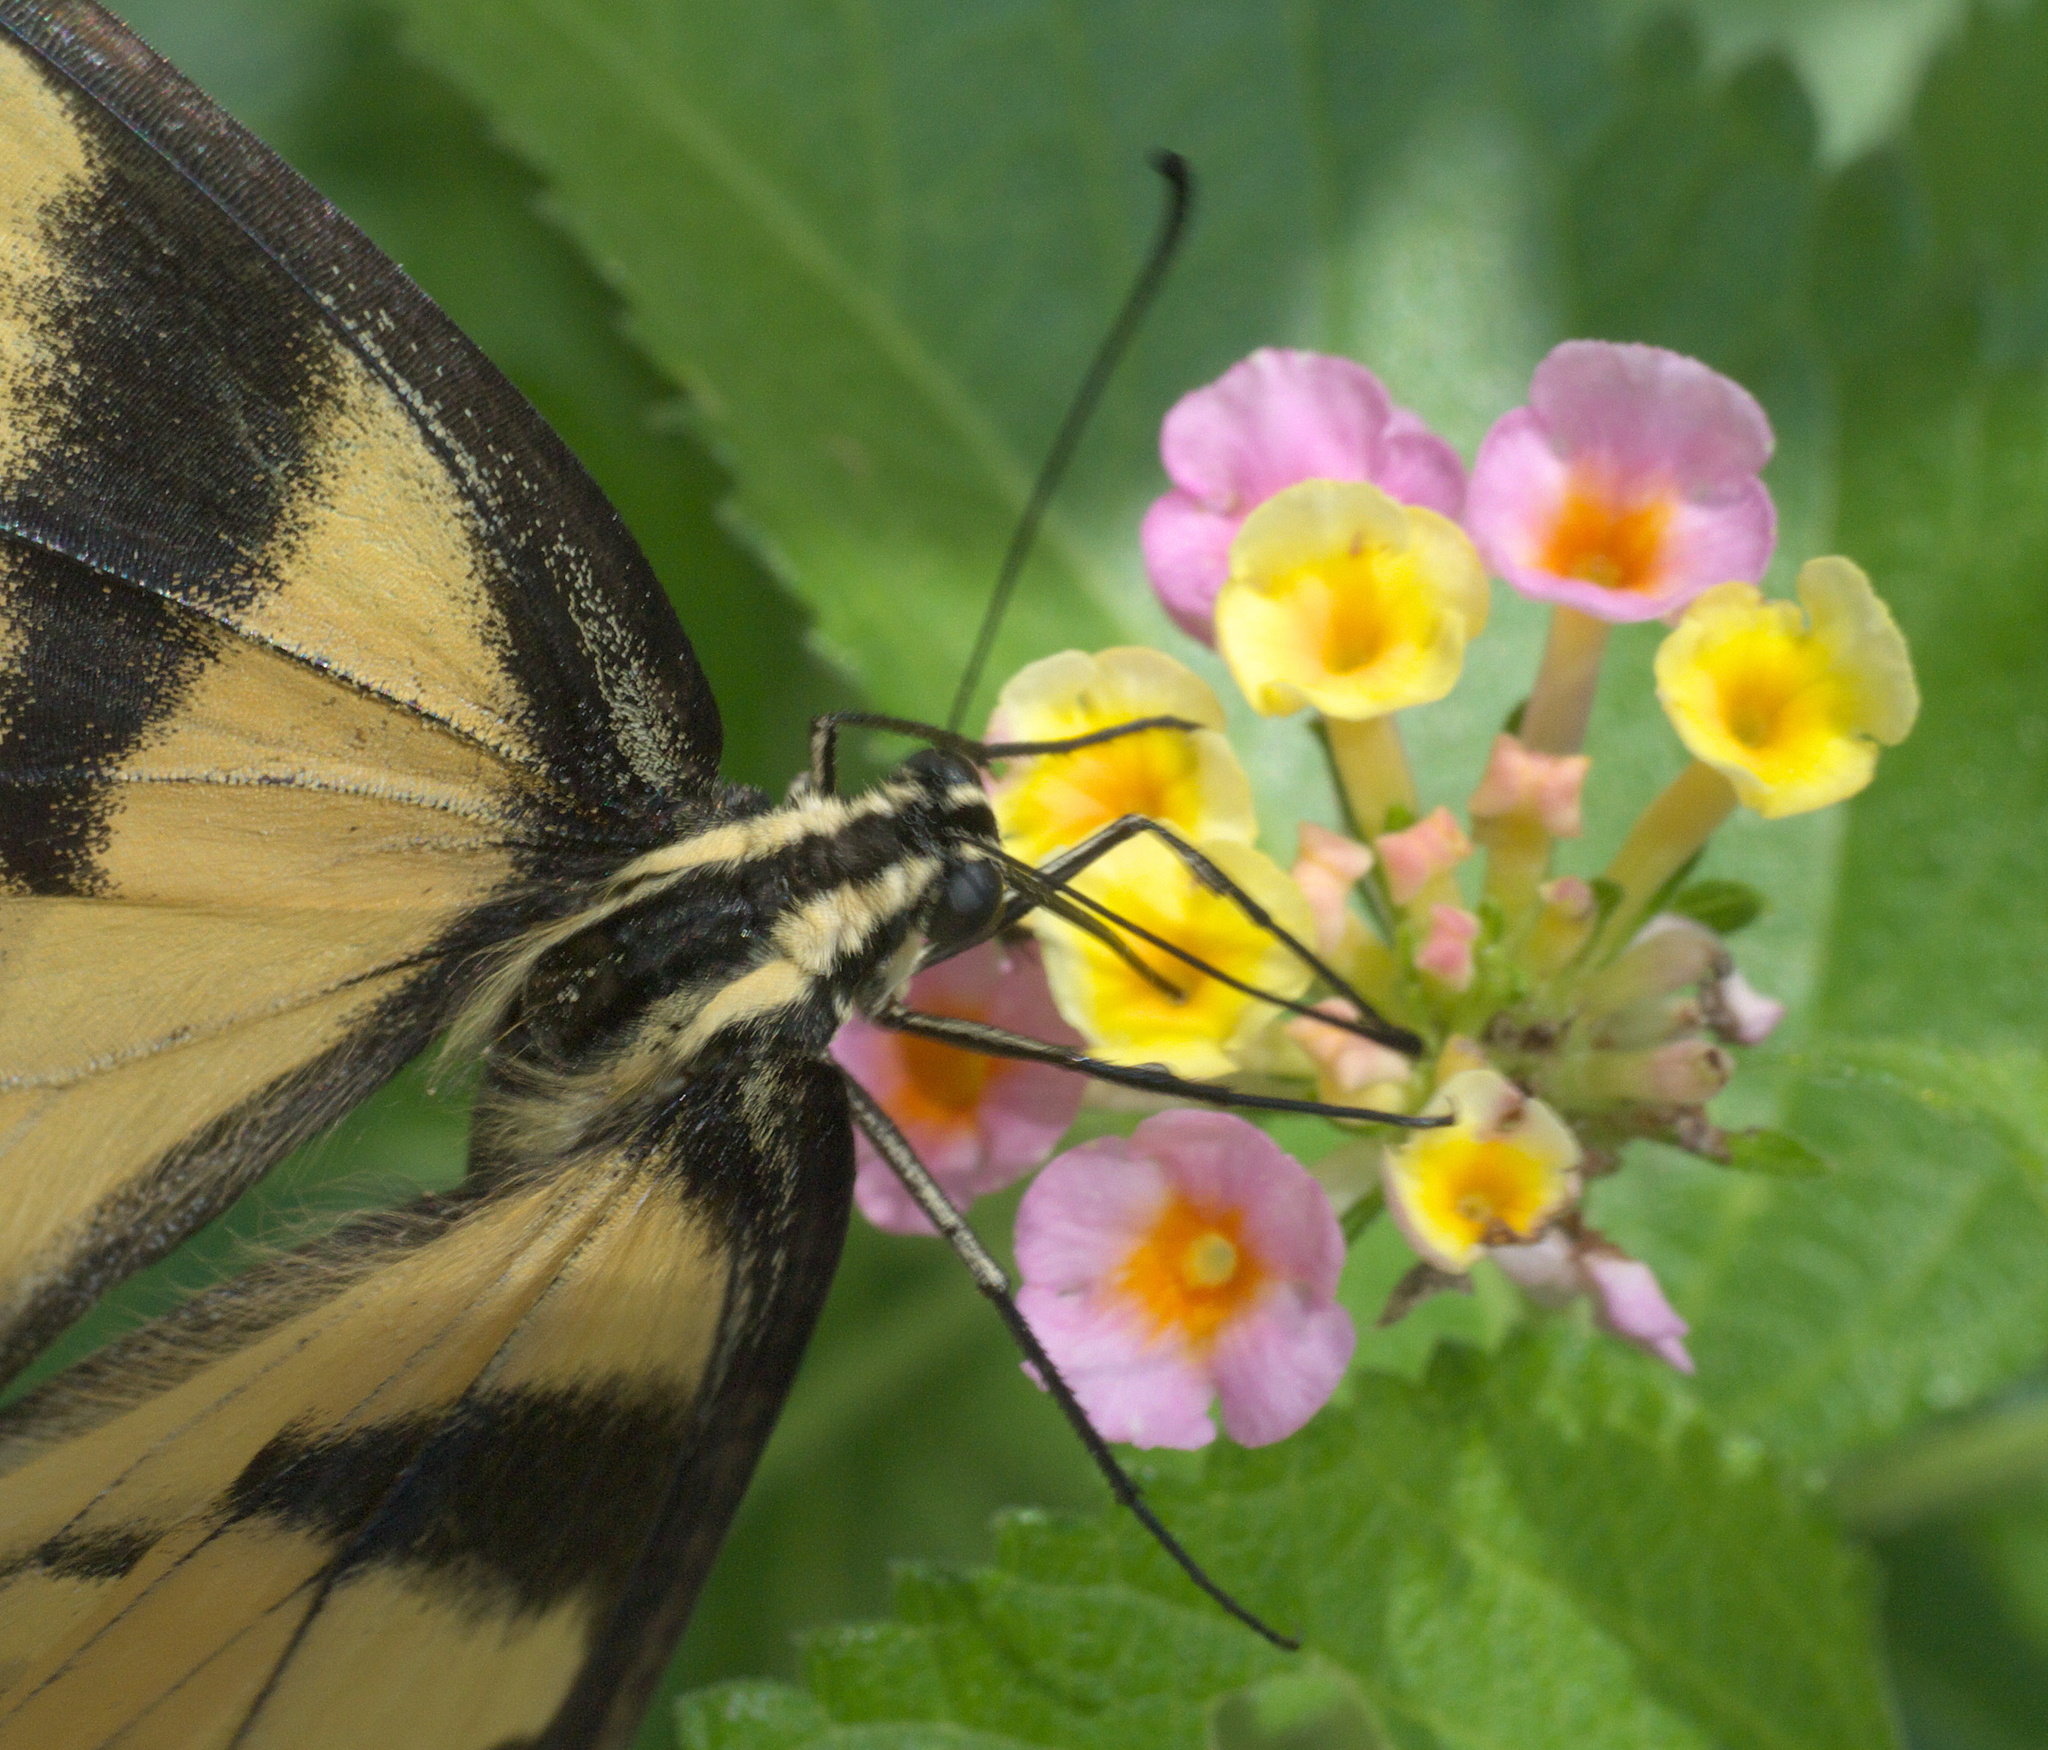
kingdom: Animalia
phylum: Arthropoda
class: Insecta
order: Lepidoptera
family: Papilionidae
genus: Papilio
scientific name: Papilio glaucus
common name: Tiger swallowtail
